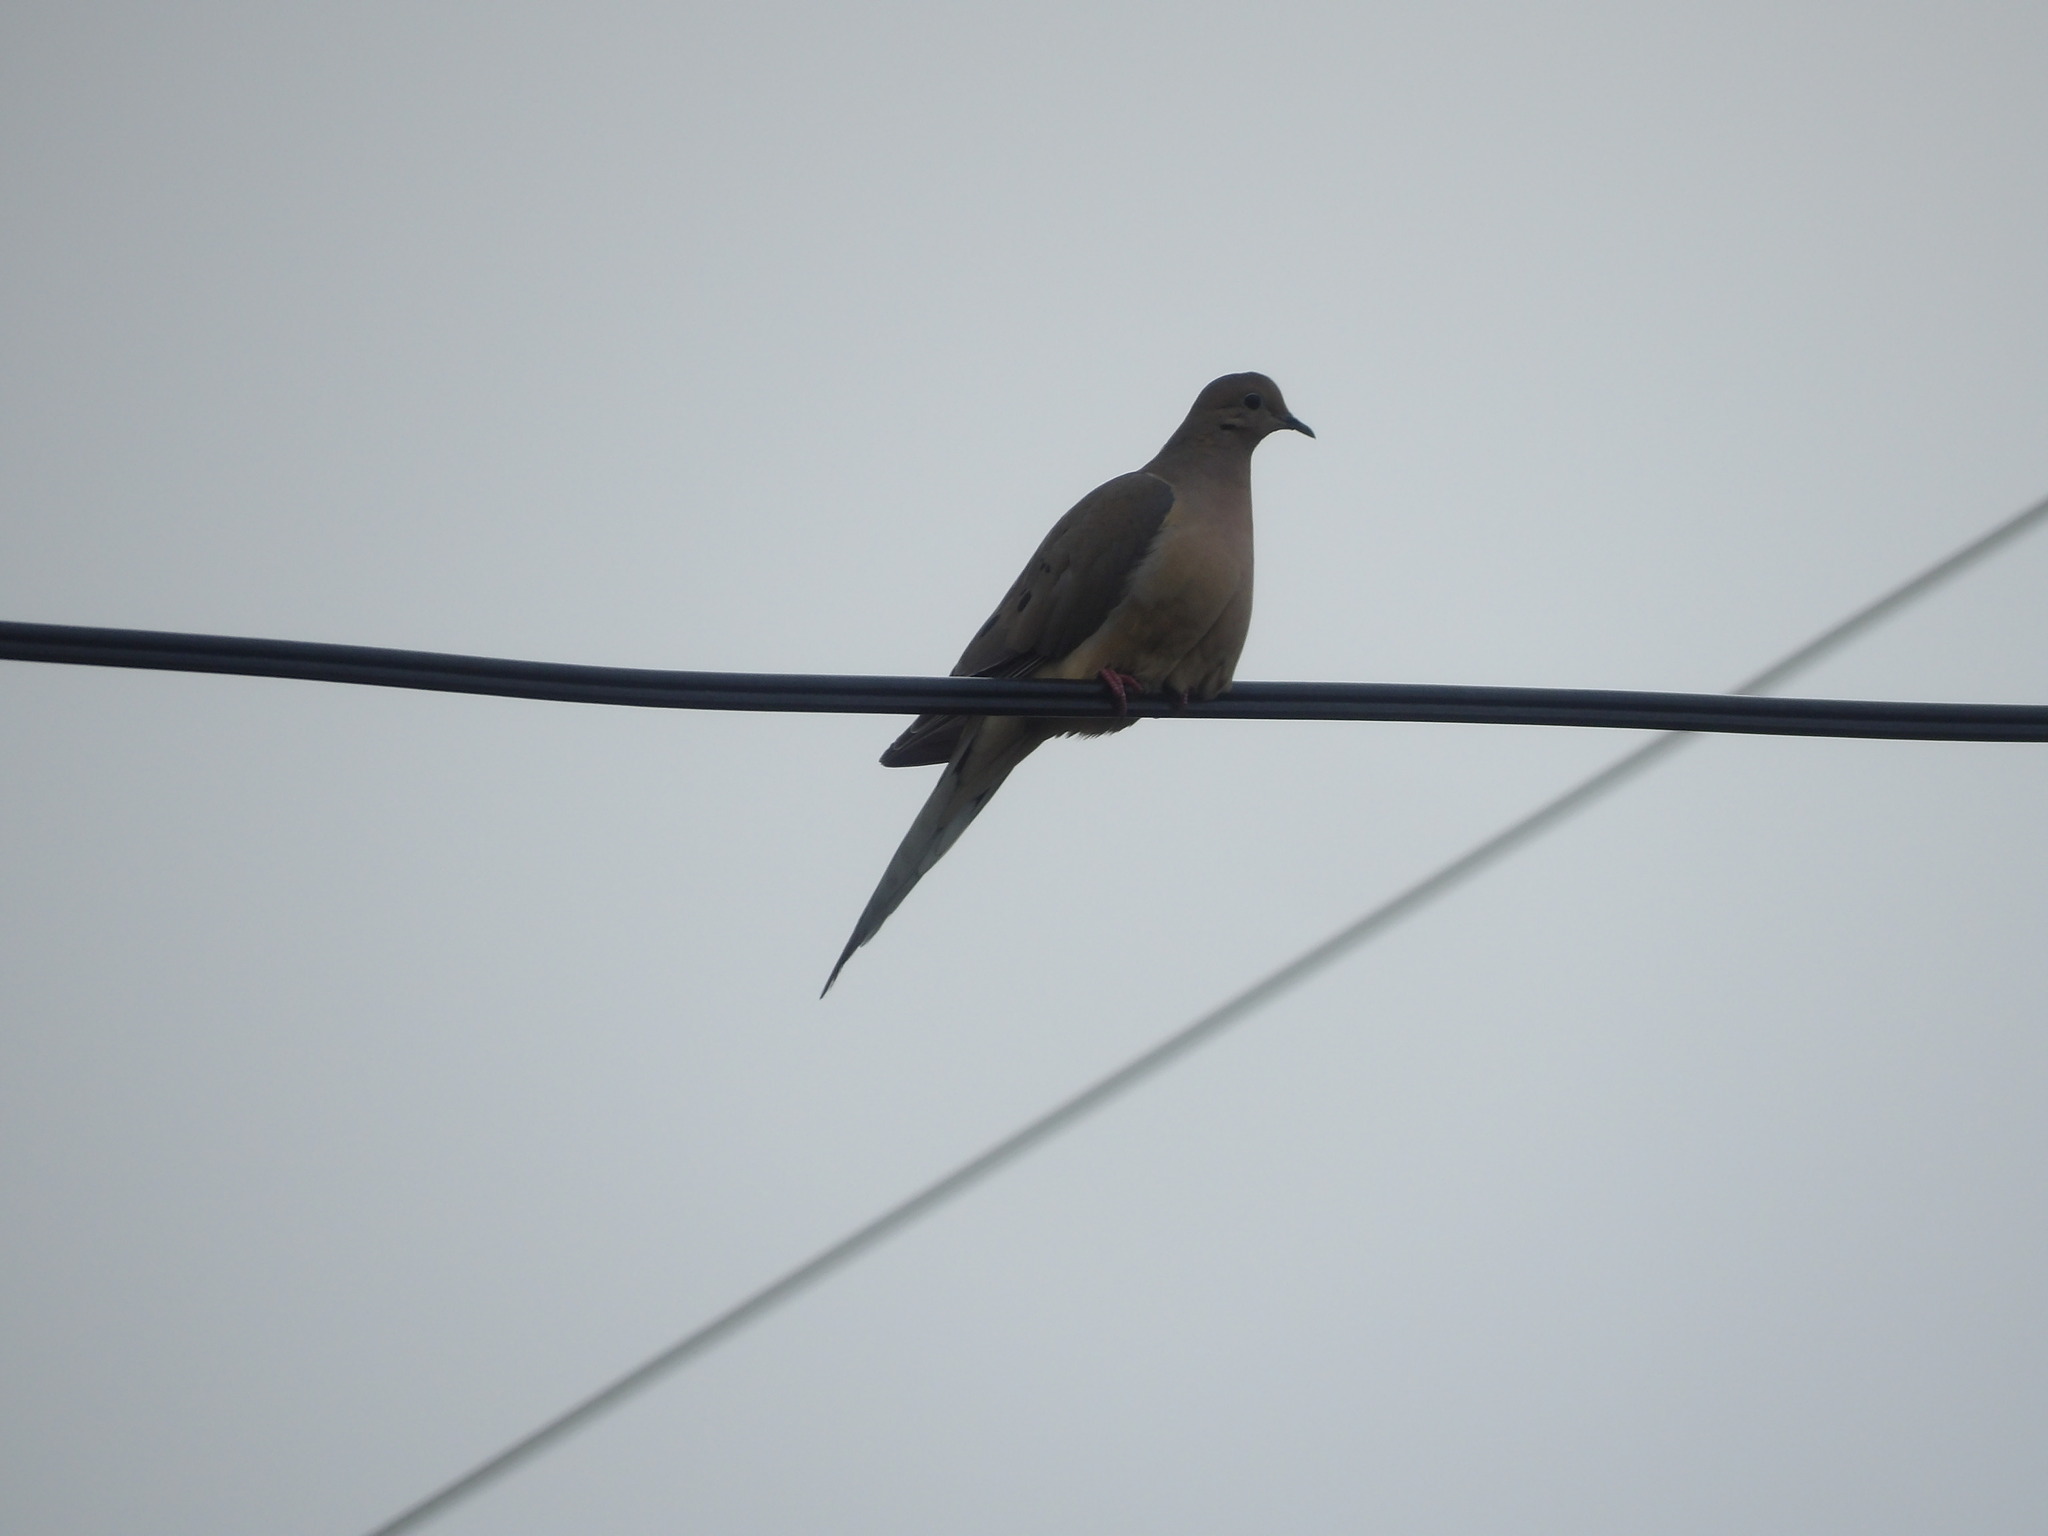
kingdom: Animalia
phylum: Chordata
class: Aves
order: Columbiformes
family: Columbidae
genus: Zenaida
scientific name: Zenaida macroura
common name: Mourning dove
